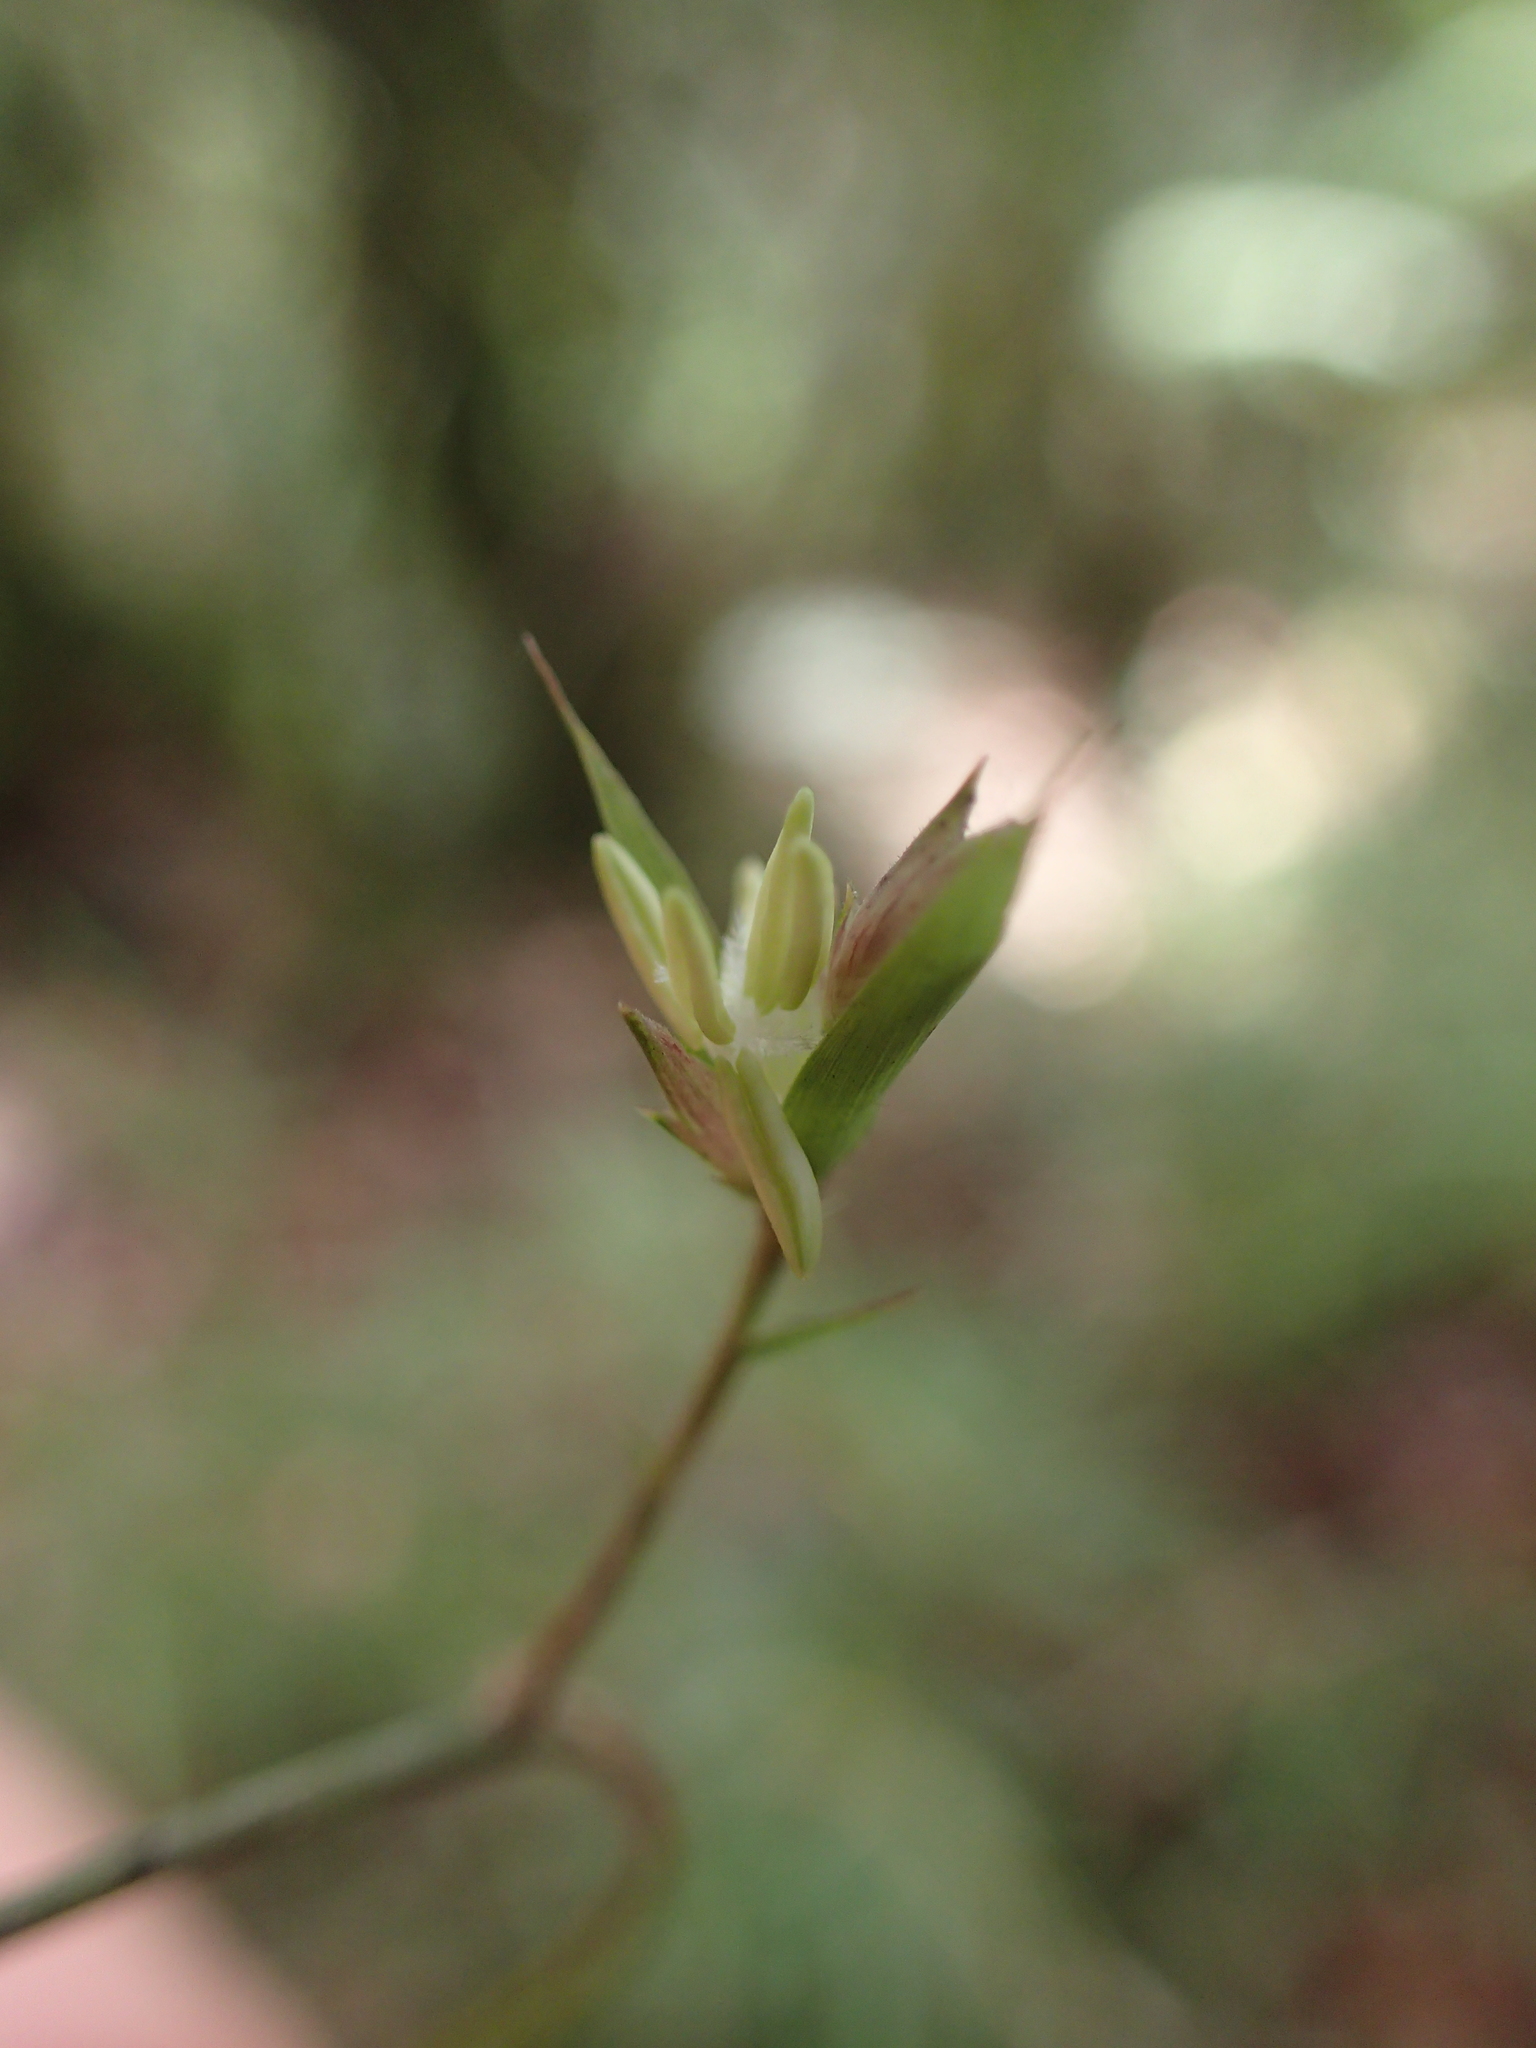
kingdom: Plantae
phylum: Tracheophyta
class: Liliopsida
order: Poales
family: Poaceae
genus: Nastus
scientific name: Nastus perrieri
